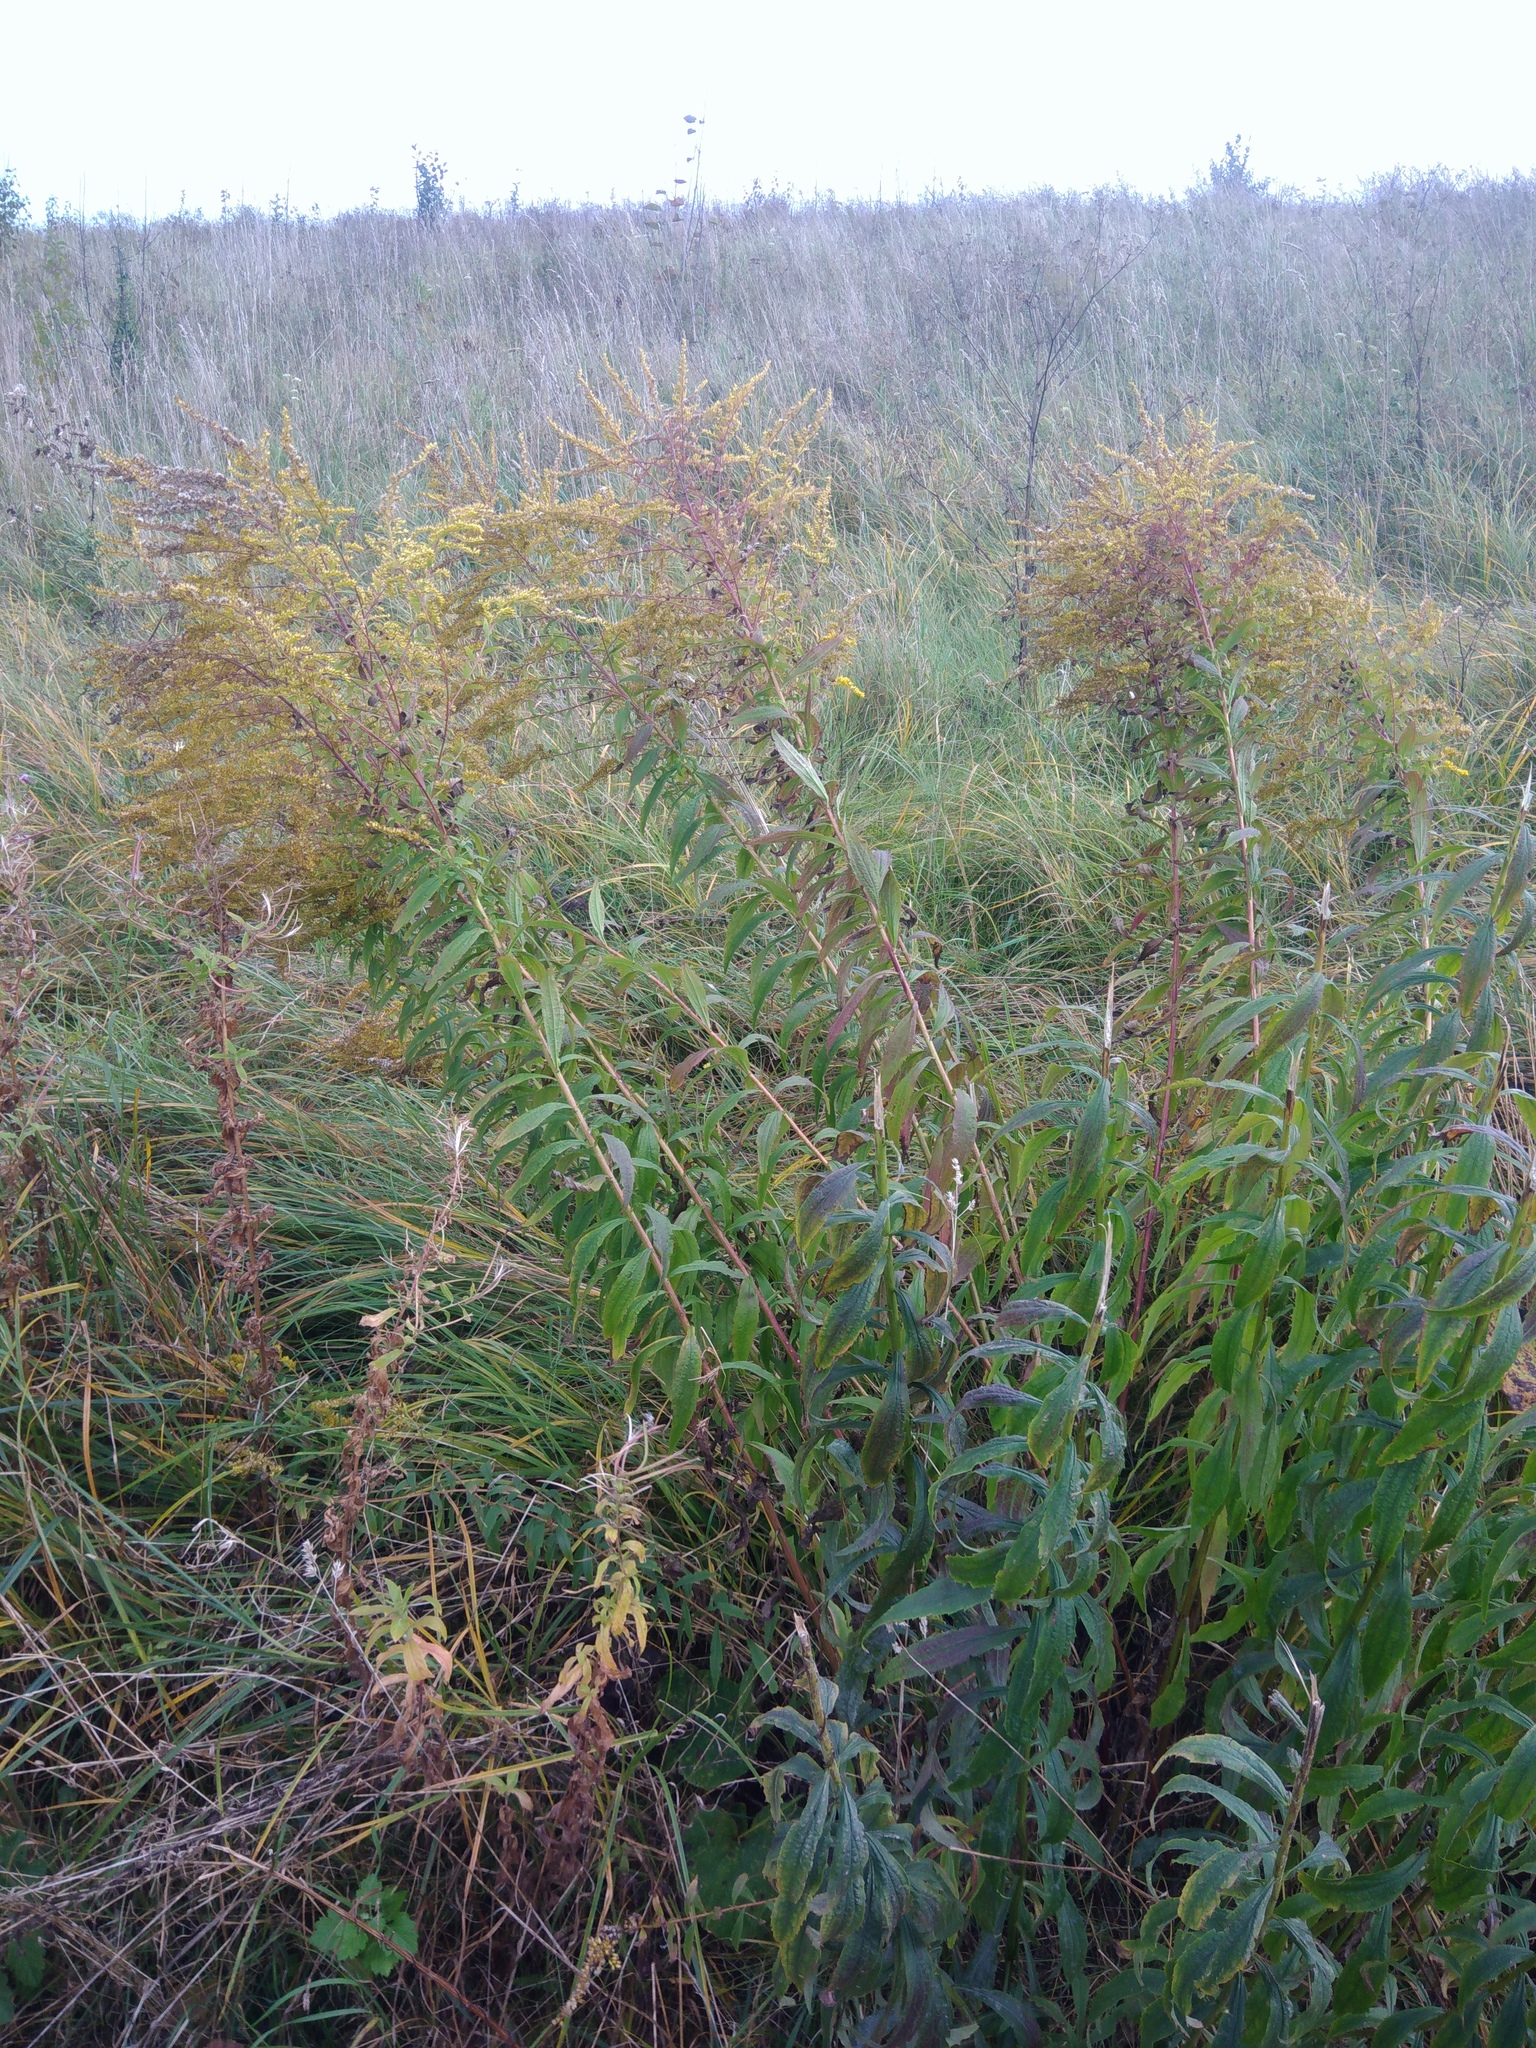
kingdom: Plantae
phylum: Tracheophyta
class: Magnoliopsida
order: Asterales
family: Asteraceae
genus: Solidago
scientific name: Solidago canadensis
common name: Canada goldenrod
